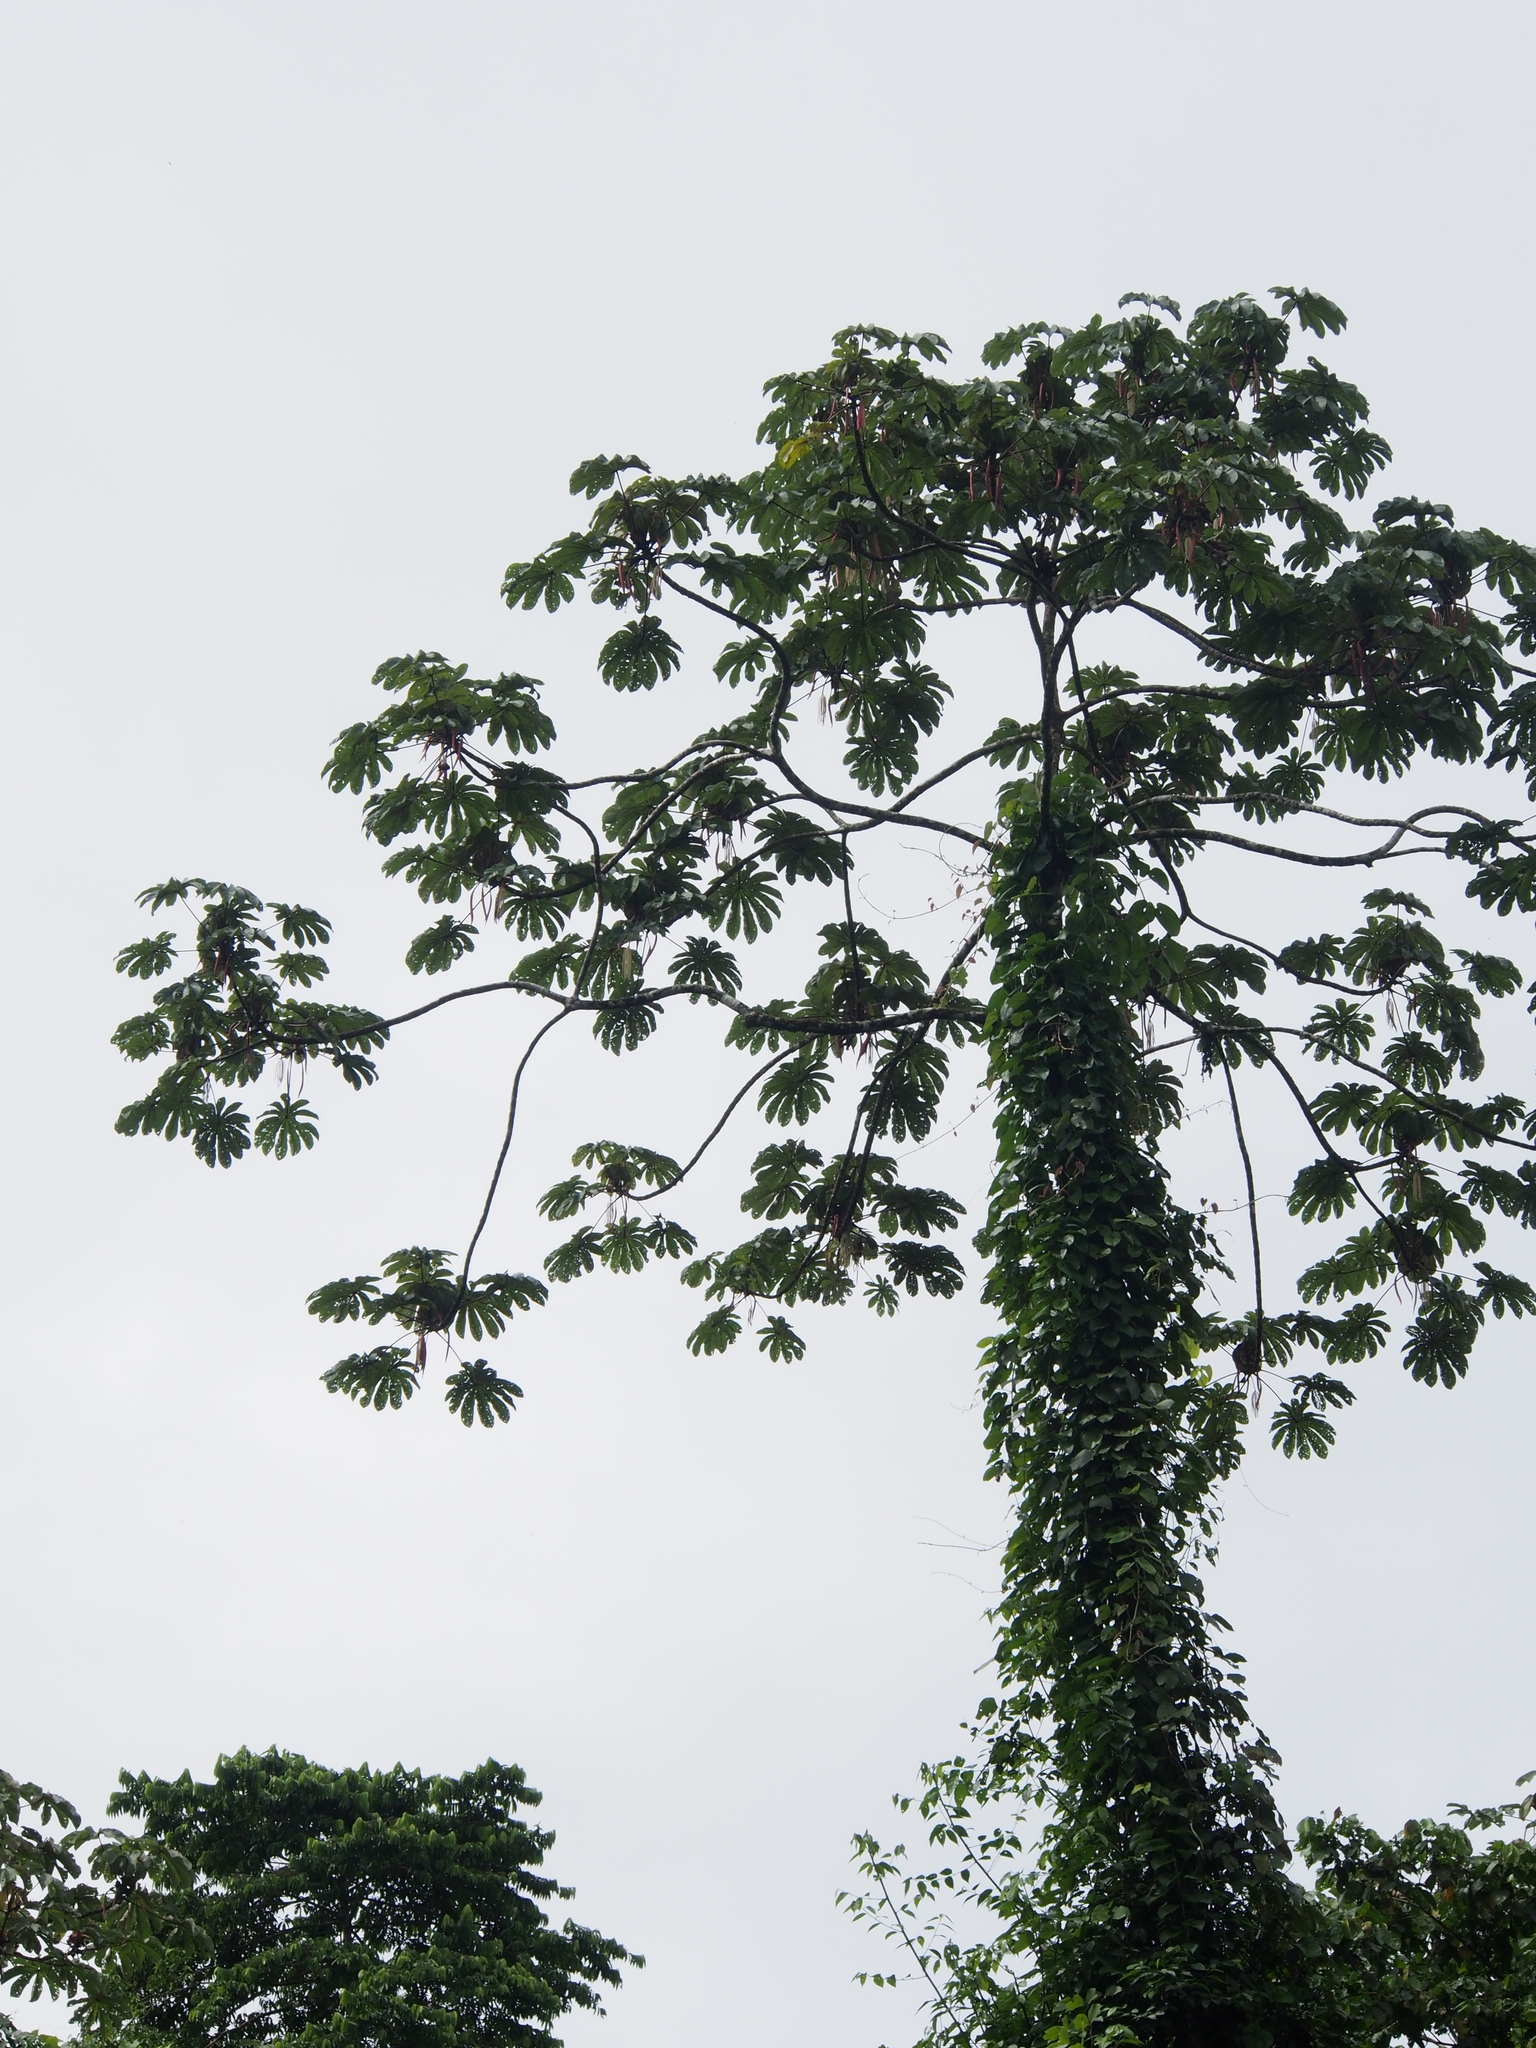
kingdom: Plantae
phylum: Tracheophyta
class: Magnoliopsida
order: Rosales
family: Urticaceae
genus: Cecropia
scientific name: Cecropia obtusifolia
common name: Trumpet tree
